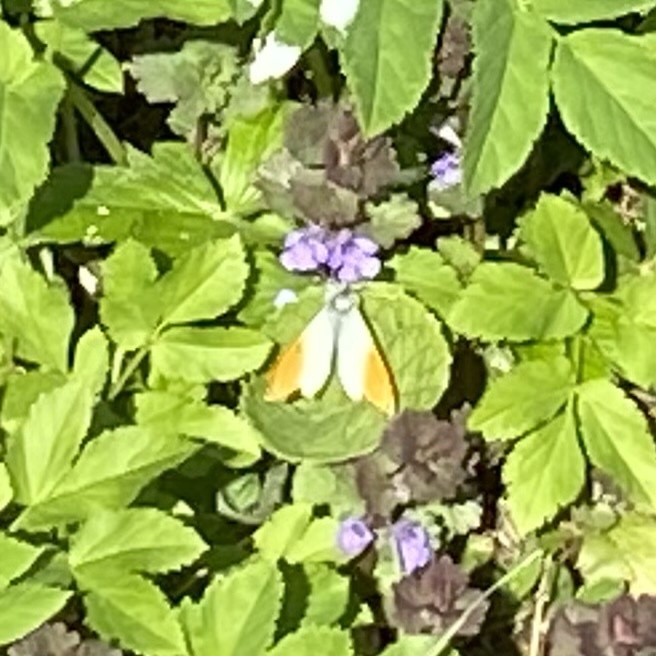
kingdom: Animalia
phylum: Arthropoda
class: Insecta
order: Lepidoptera
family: Pieridae
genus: Anthocharis
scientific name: Anthocharis cardamines
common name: Orange-tip
